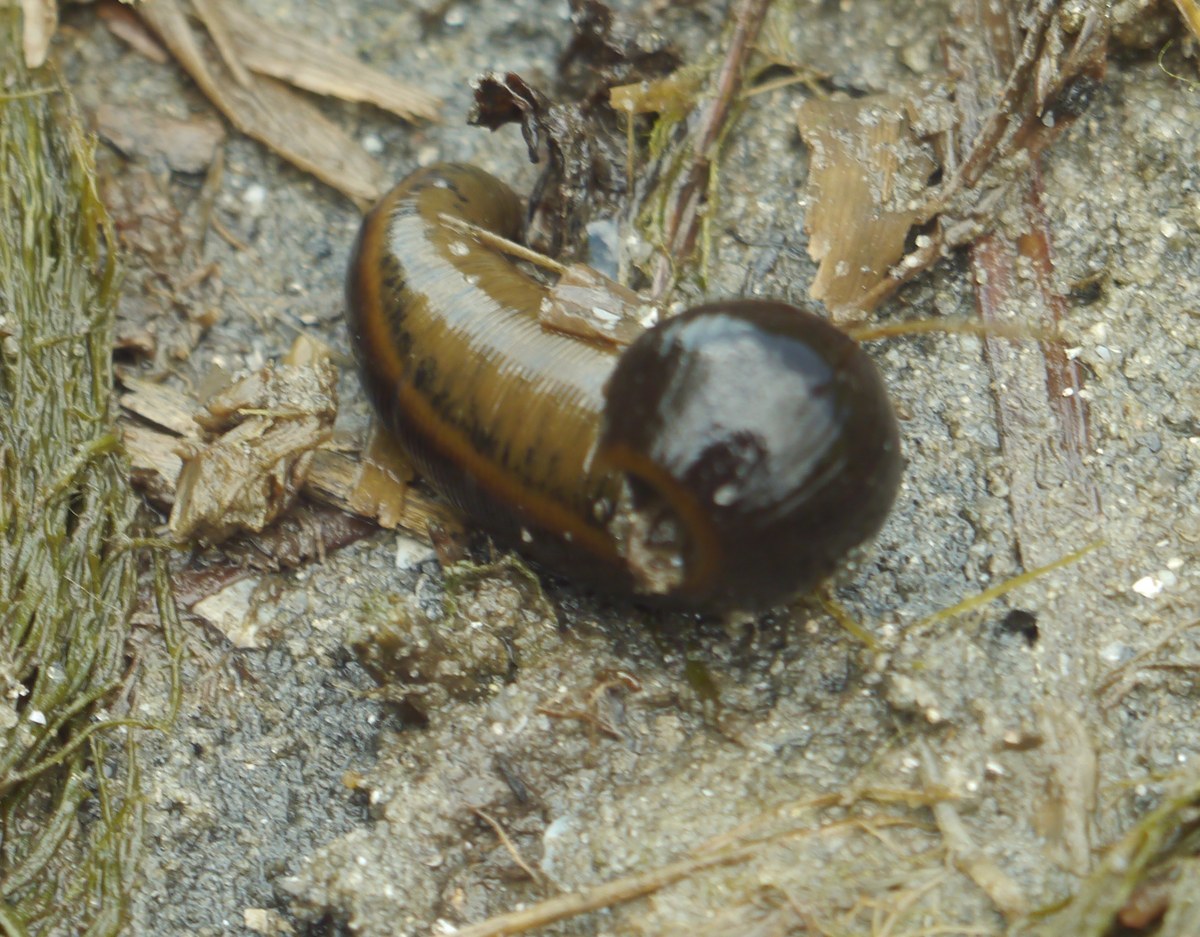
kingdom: Animalia
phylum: Annelida
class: Clitellata
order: Arhynchobdellida
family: Haemopidae
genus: Haemopis
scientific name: Haemopis sanguisuga
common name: Horse leech
